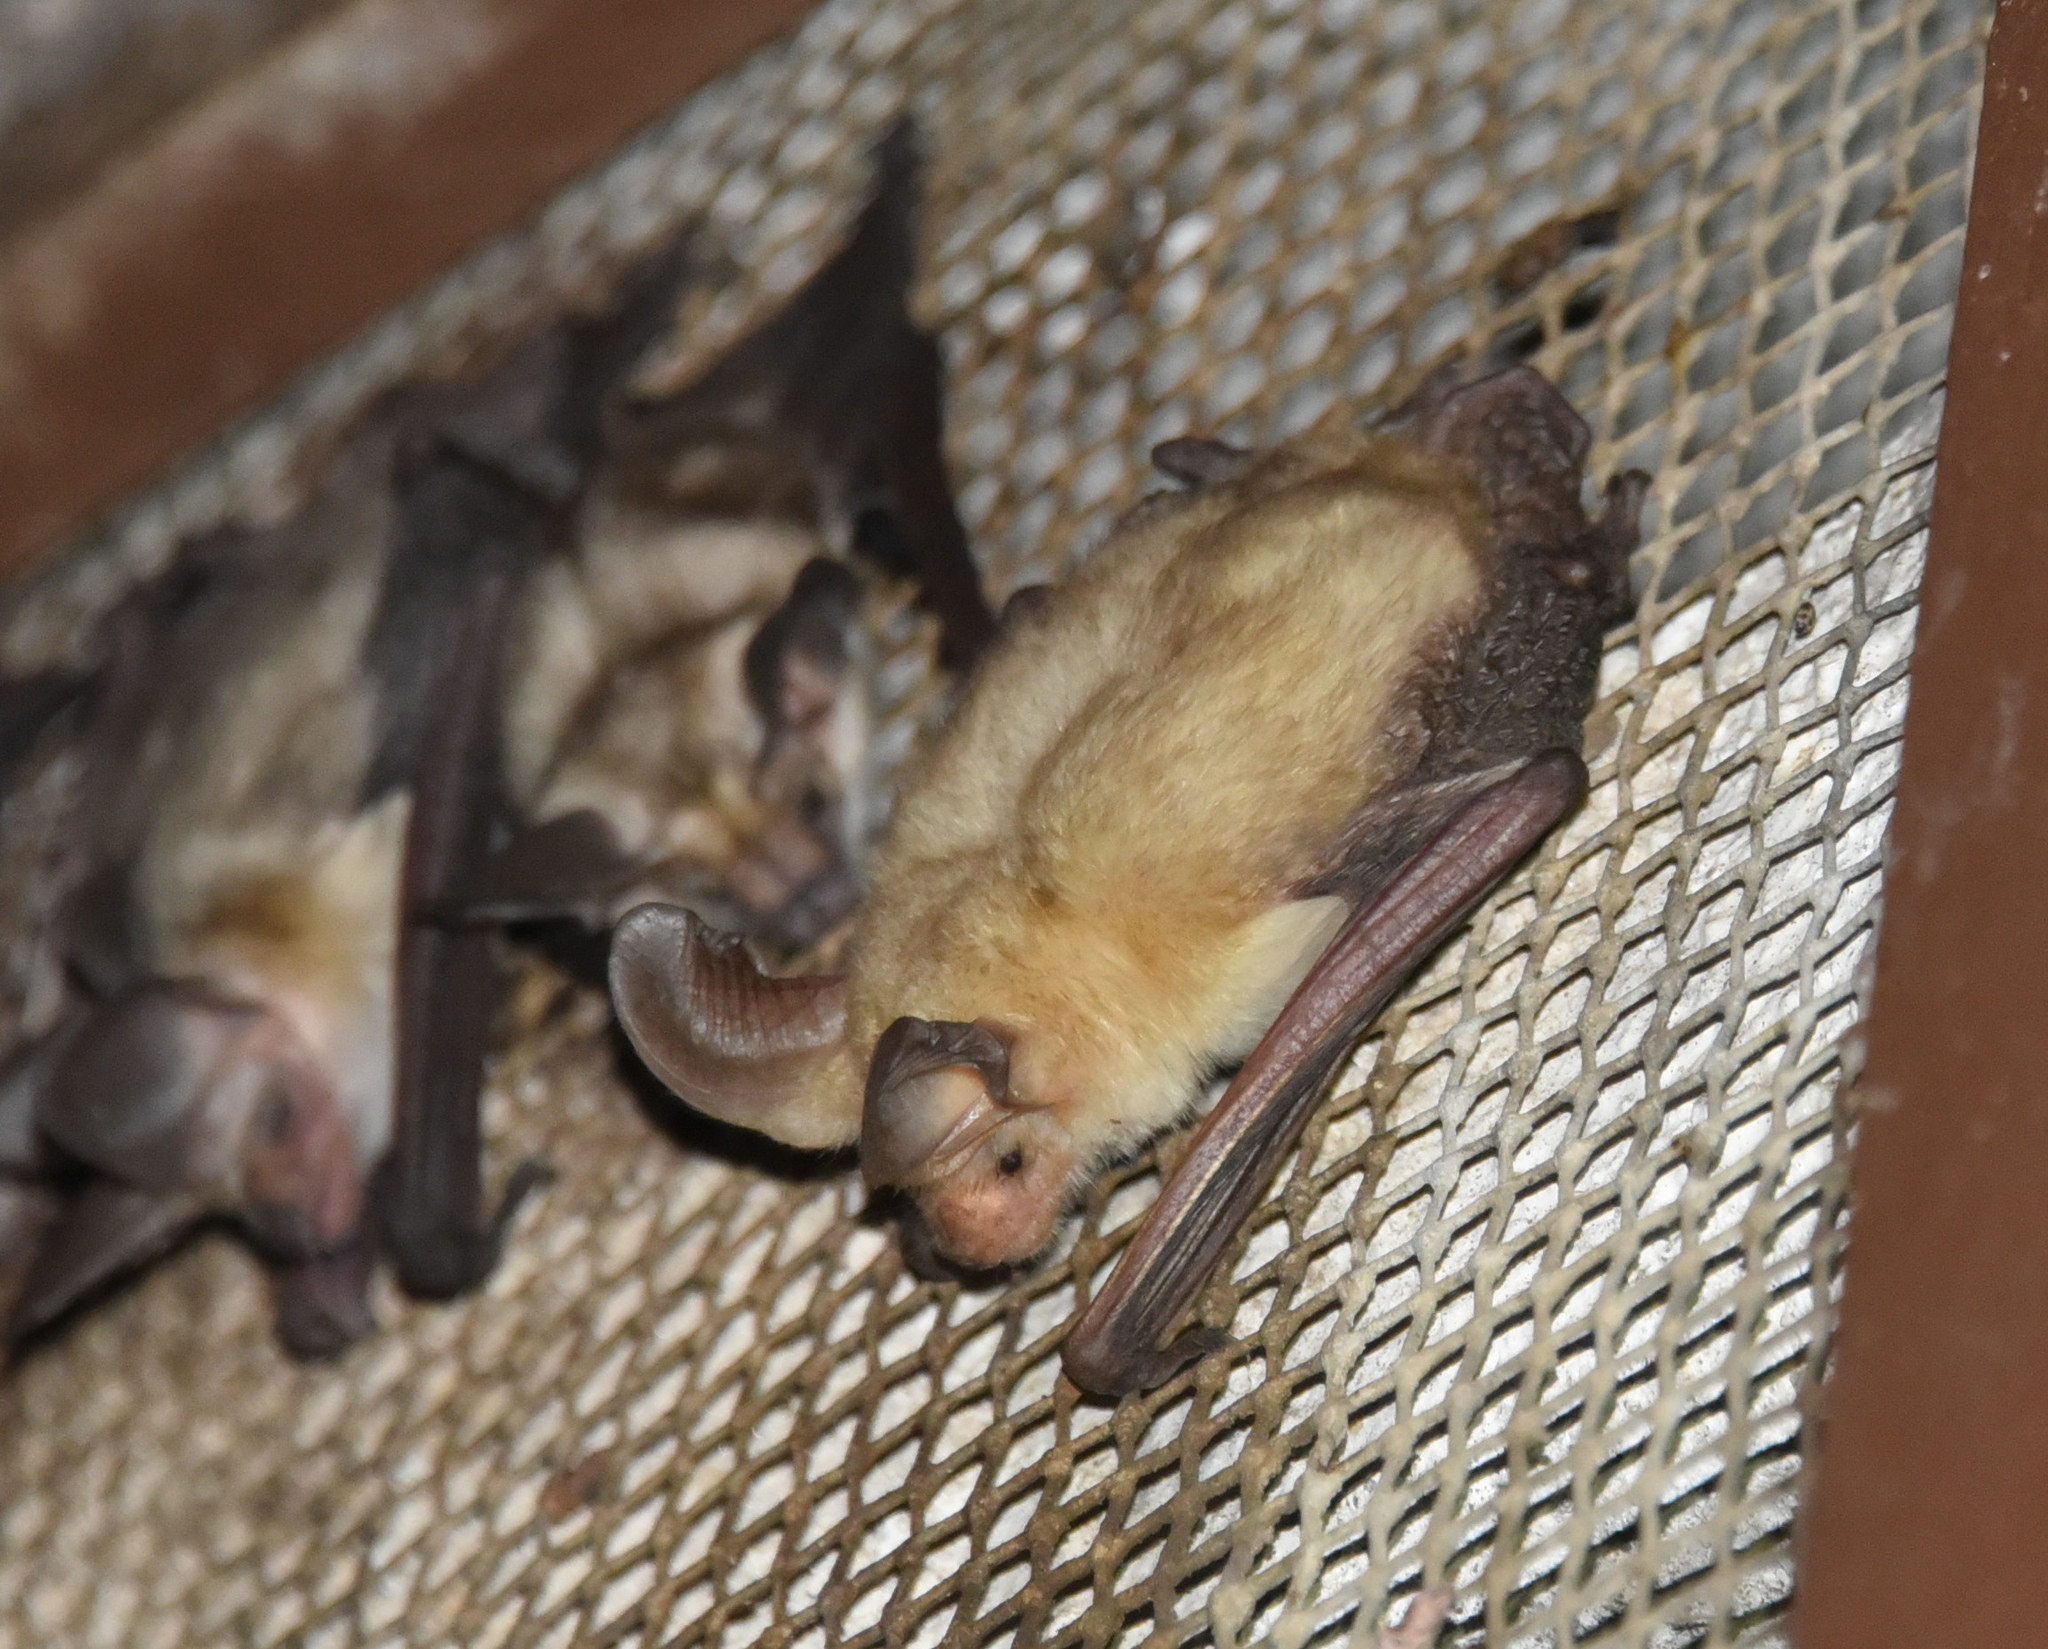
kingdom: Animalia
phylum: Chordata
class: Mammalia
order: Chiroptera
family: Vespertilionidae
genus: Antrozous
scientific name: Antrozous pallidus
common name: Pallid bat
